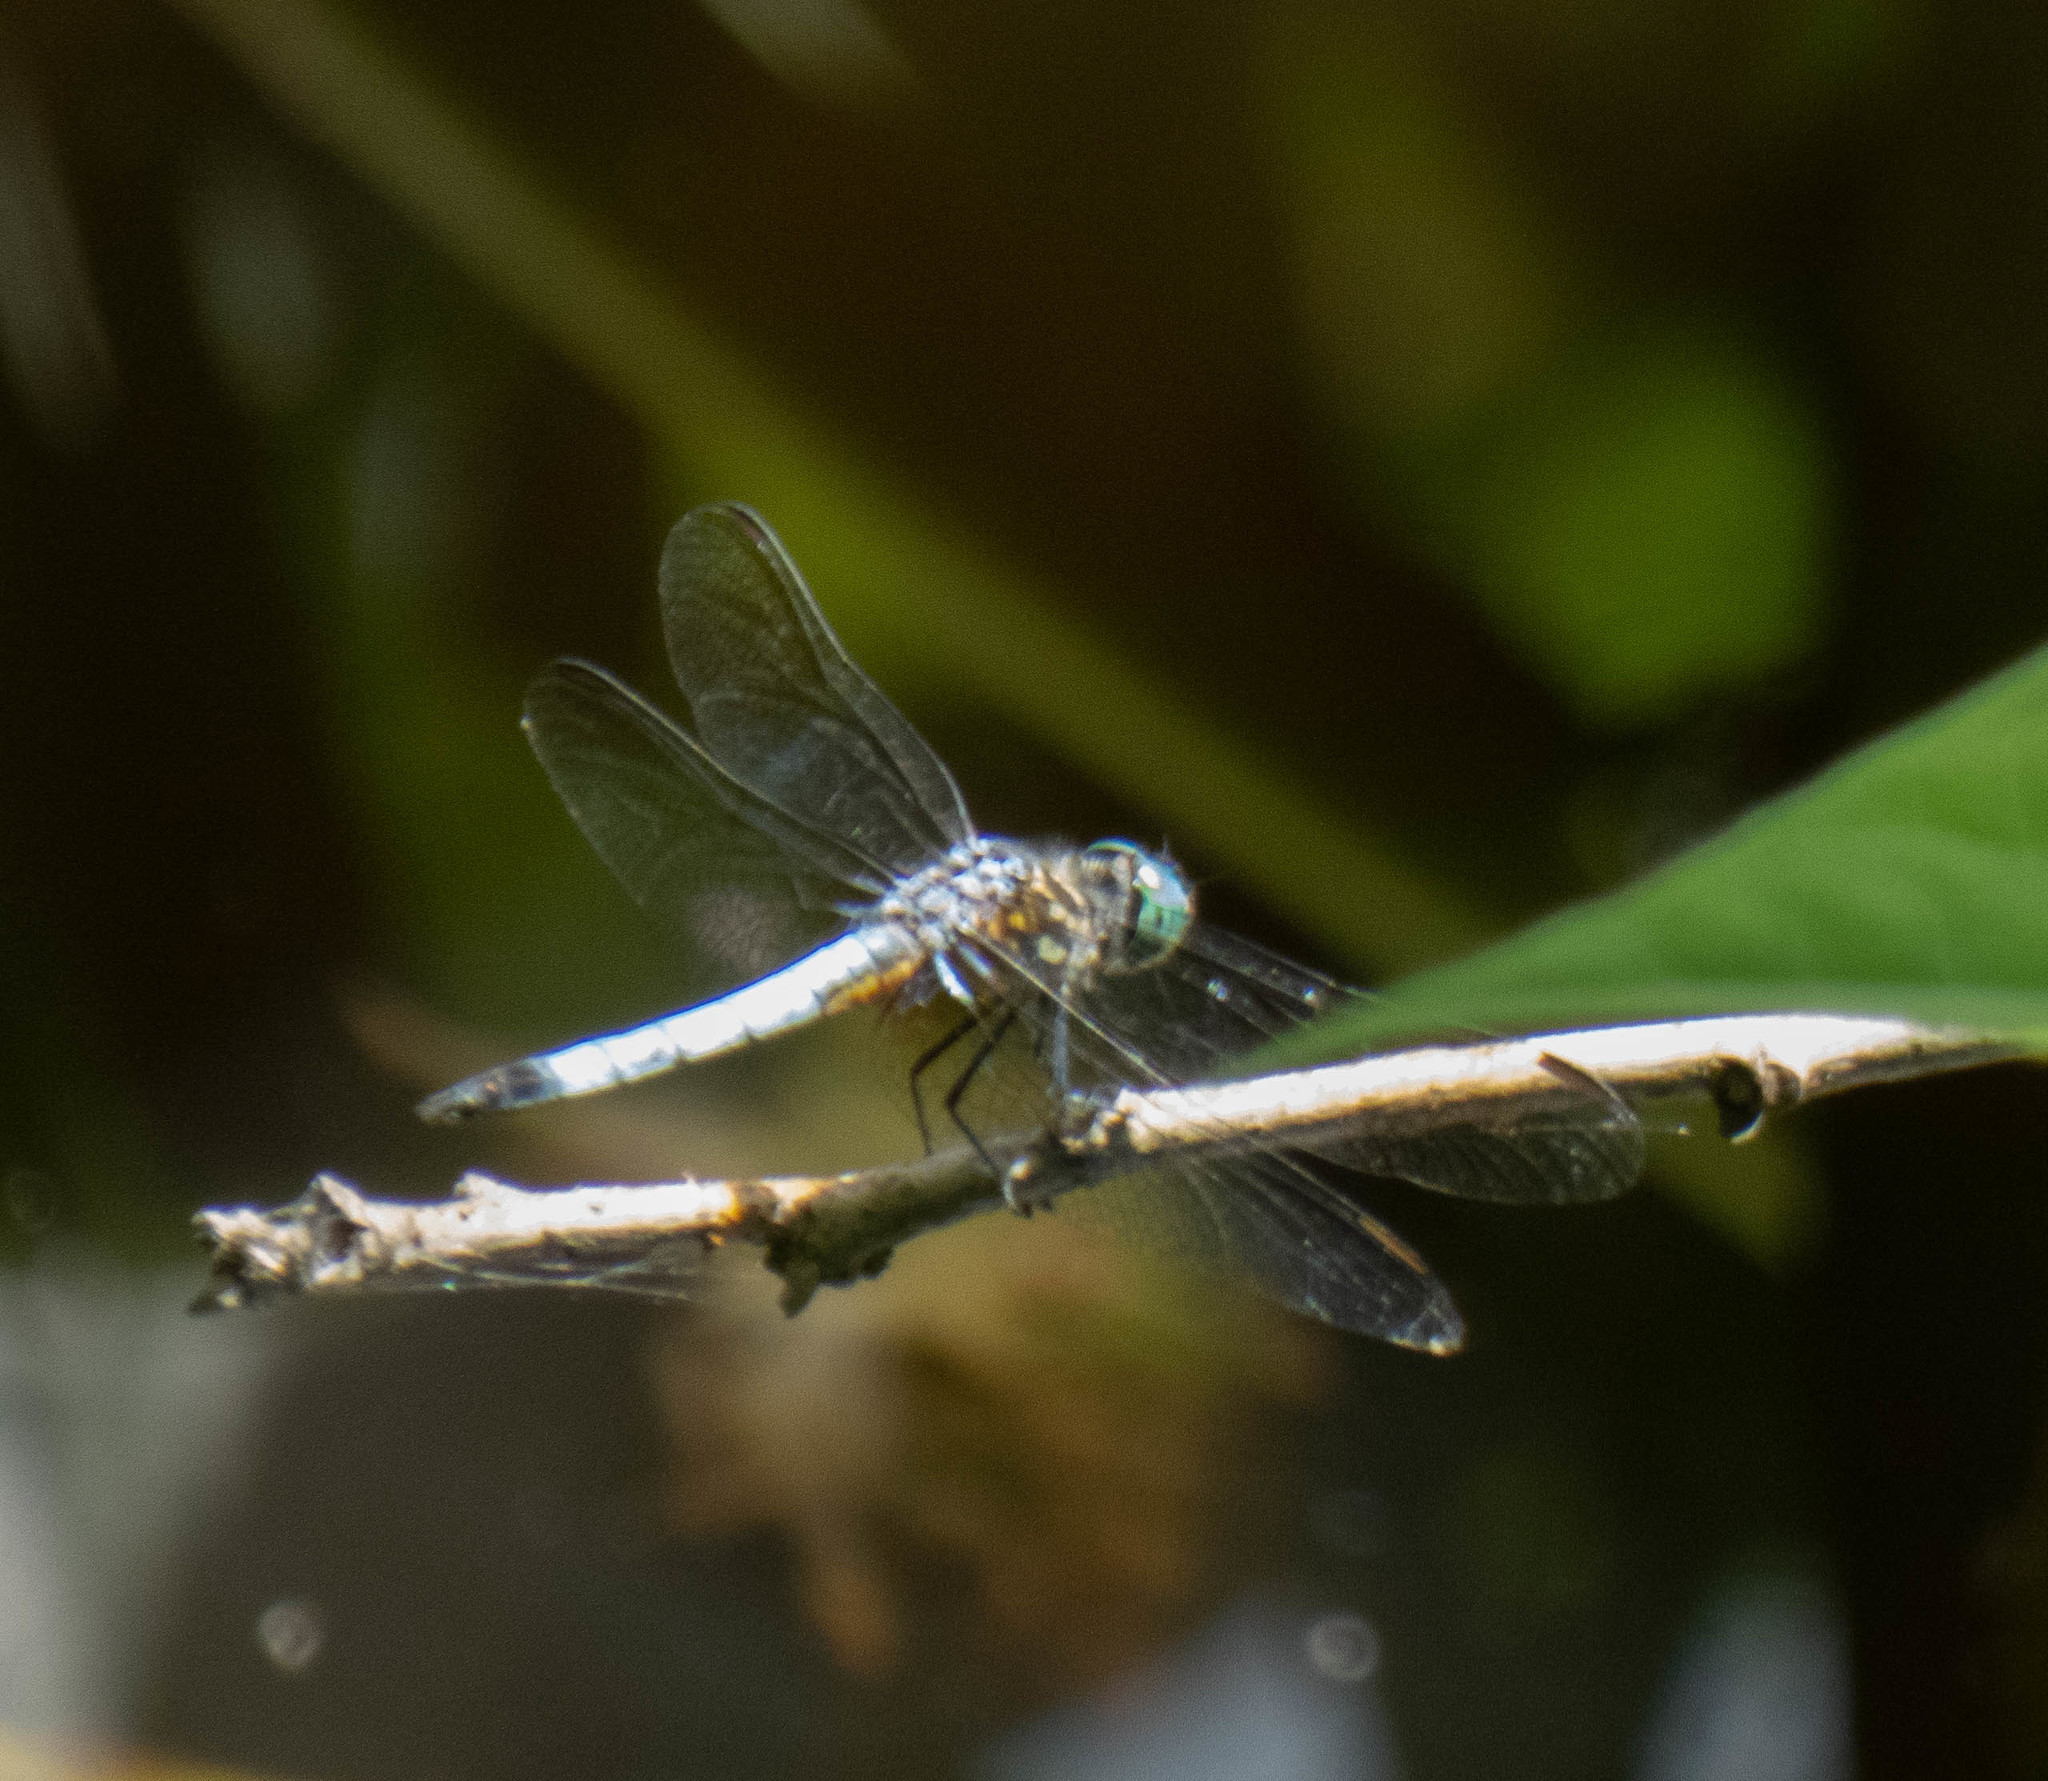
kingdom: Animalia
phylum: Arthropoda
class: Insecta
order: Odonata
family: Libellulidae
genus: Pachydiplax
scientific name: Pachydiplax longipennis
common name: Blue dasher
